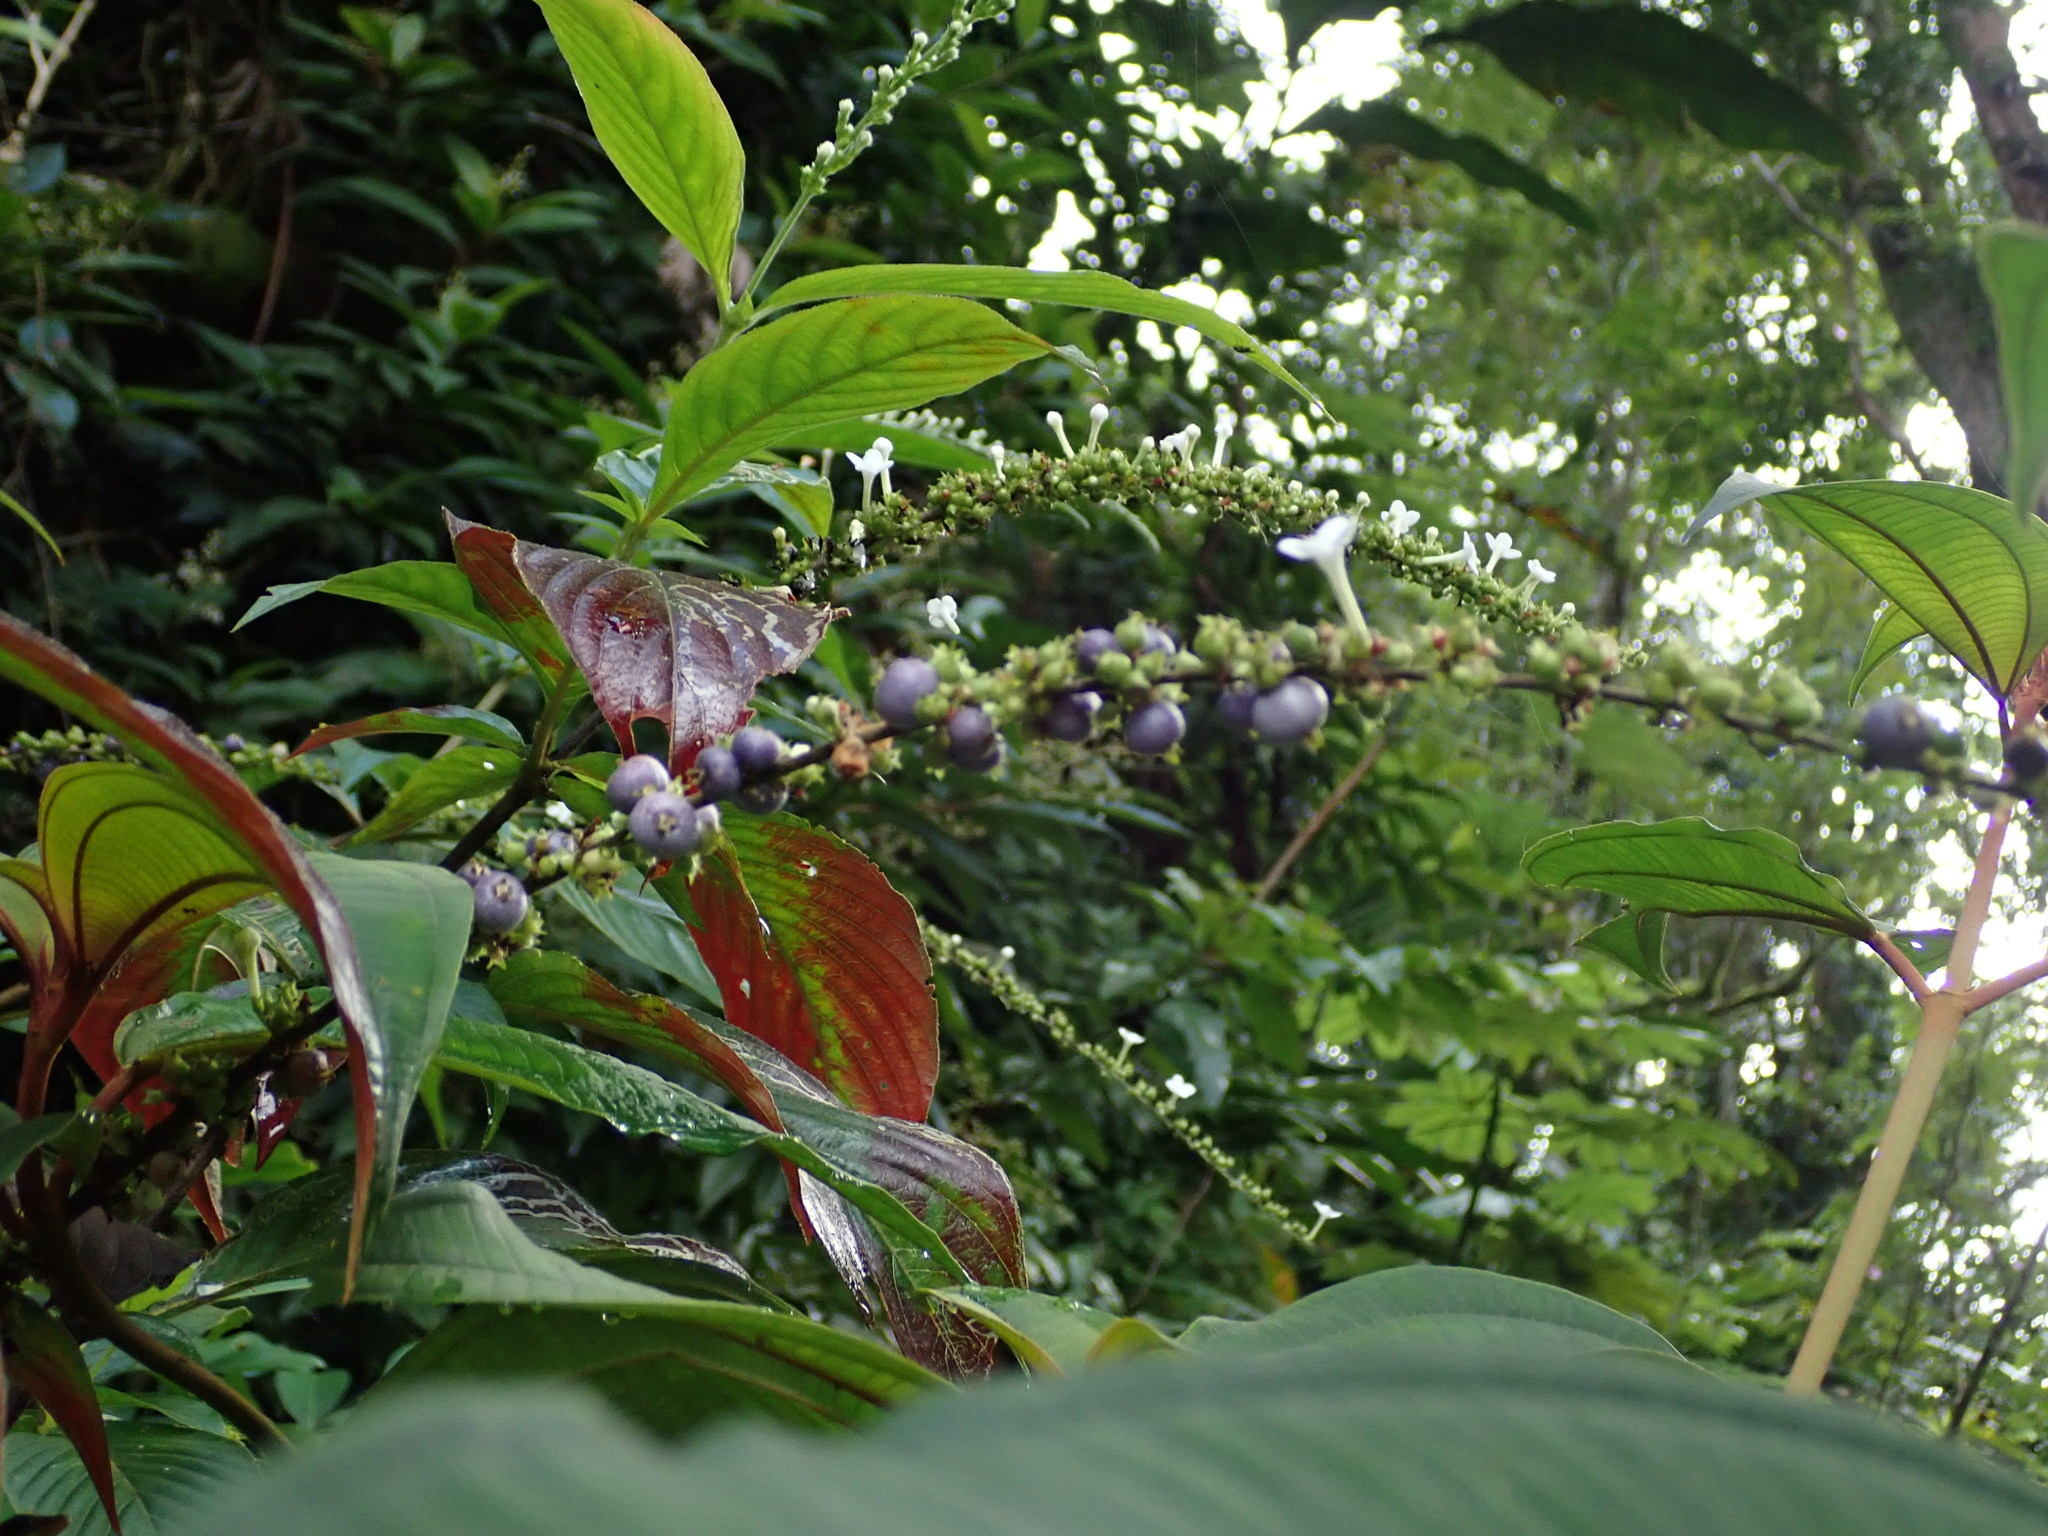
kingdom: Plantae
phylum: Tracheophyta
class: Magnoliopsida
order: Gentianales
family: Rubiaceae
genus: Gonzalagunia
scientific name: Gonzalagunia hirsuta
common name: Mata de mariposa
